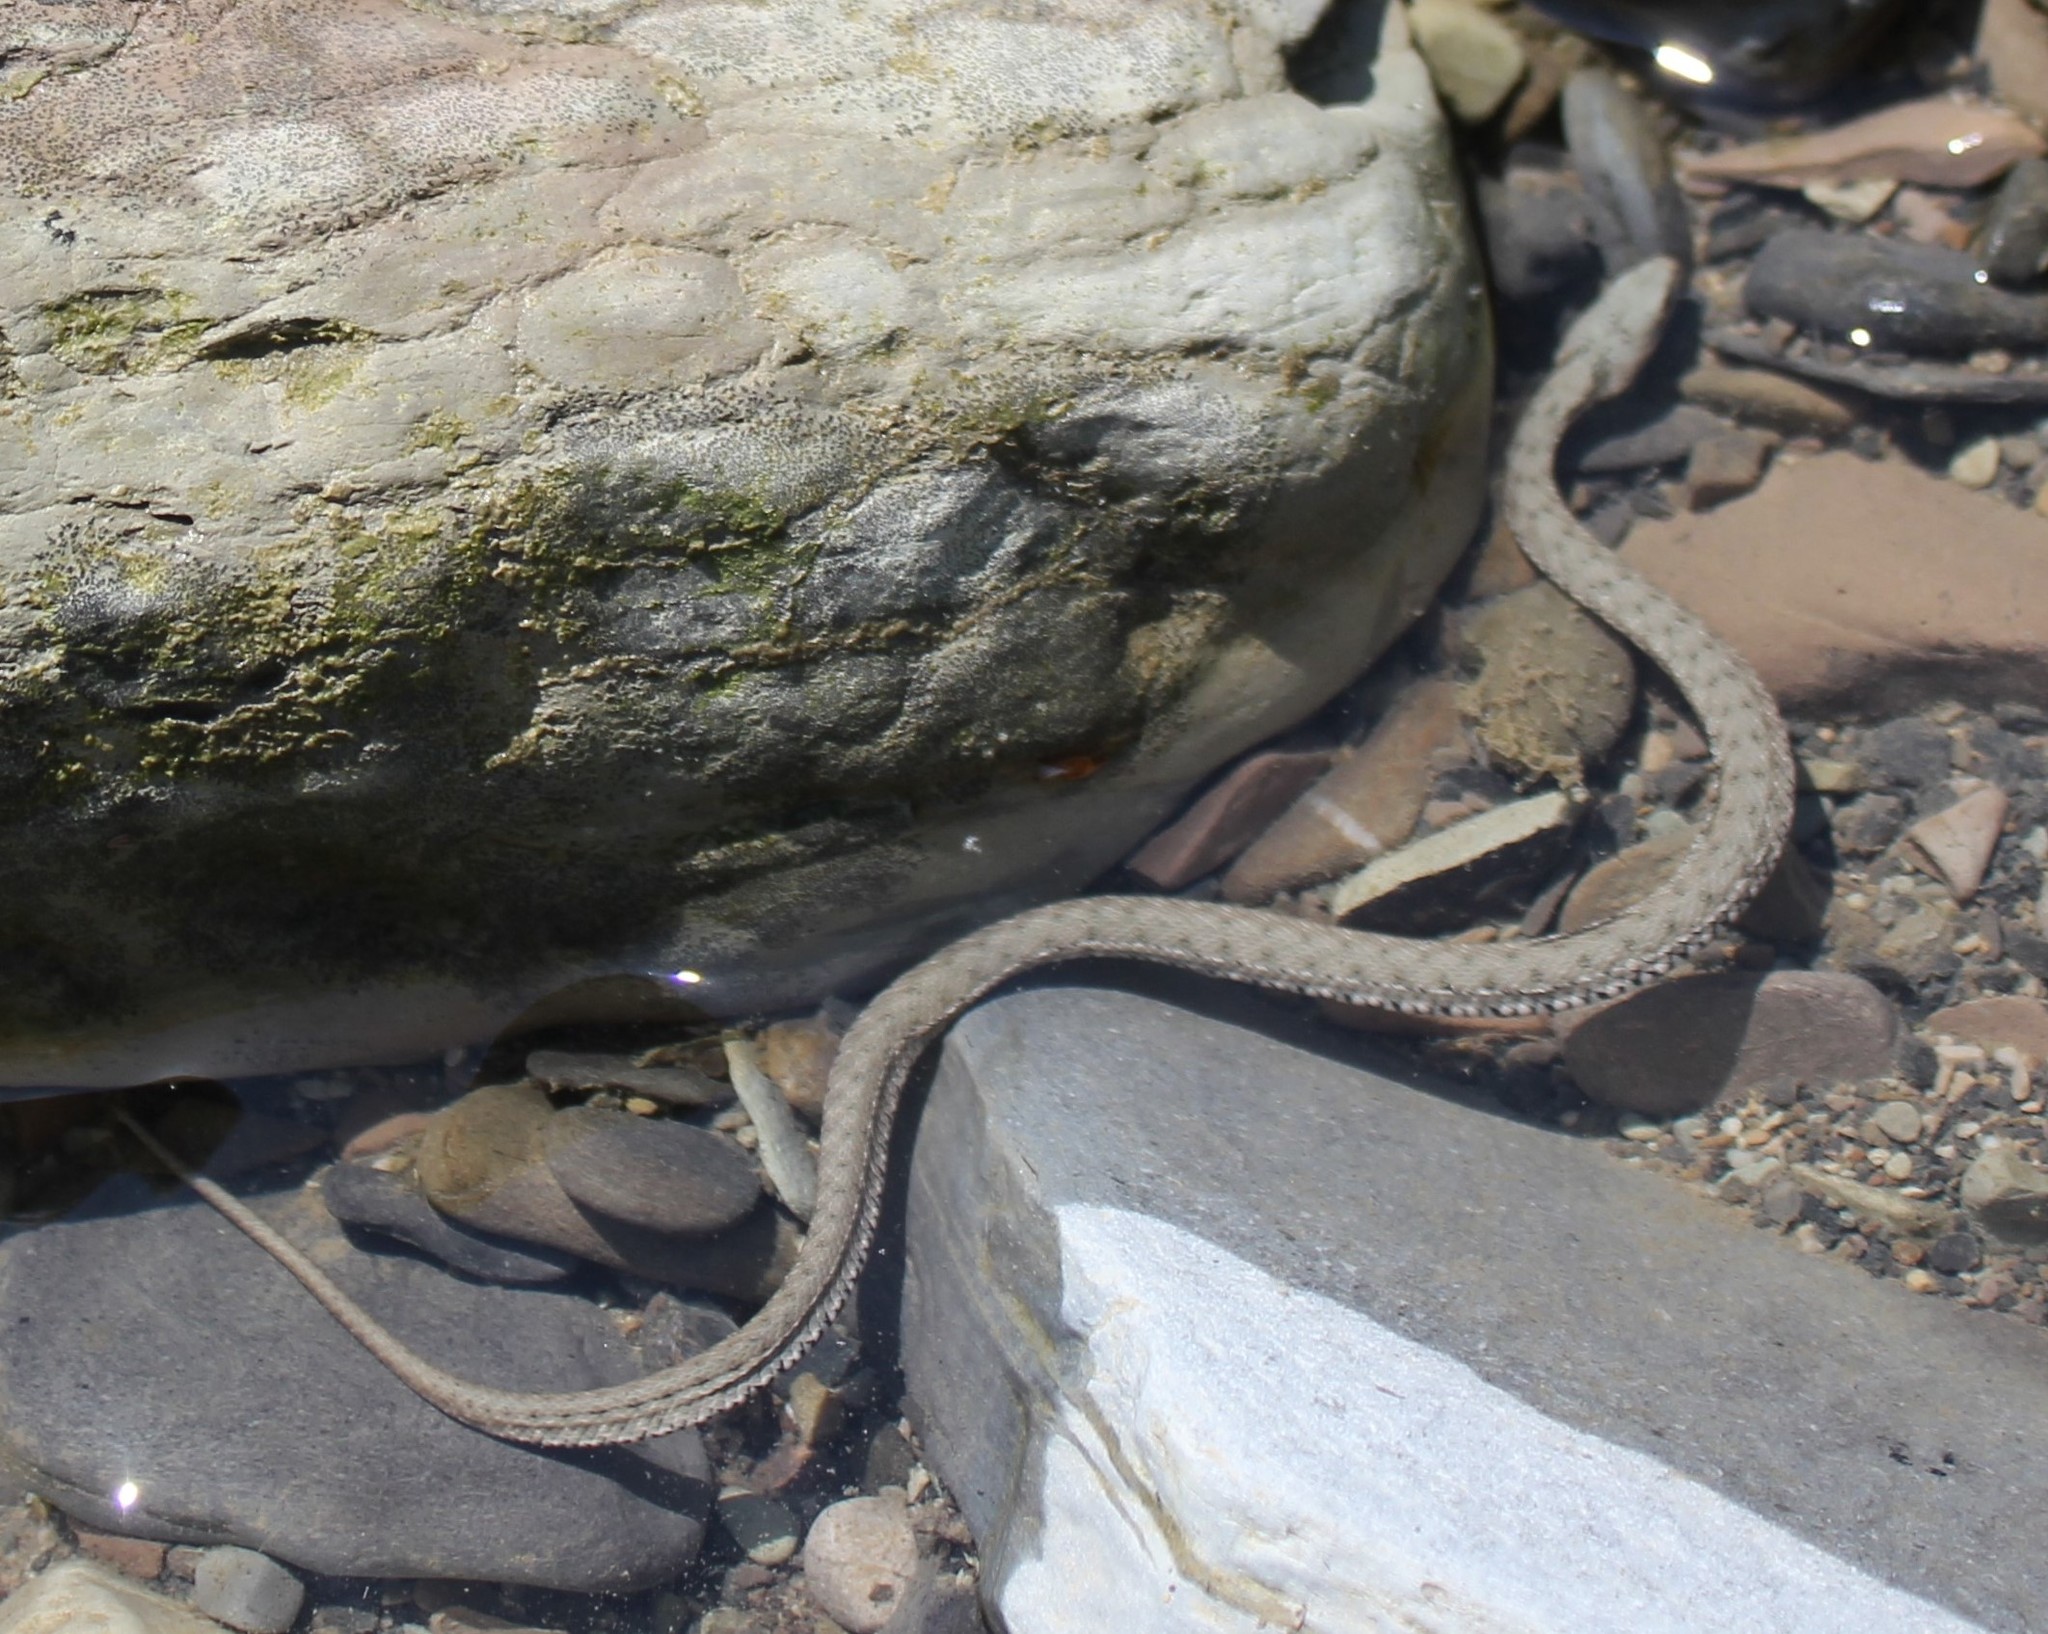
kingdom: Animalia
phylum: Chordata
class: Squamata
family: Colubridae
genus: Natrix
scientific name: Natrix tessellata
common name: Dice snake
